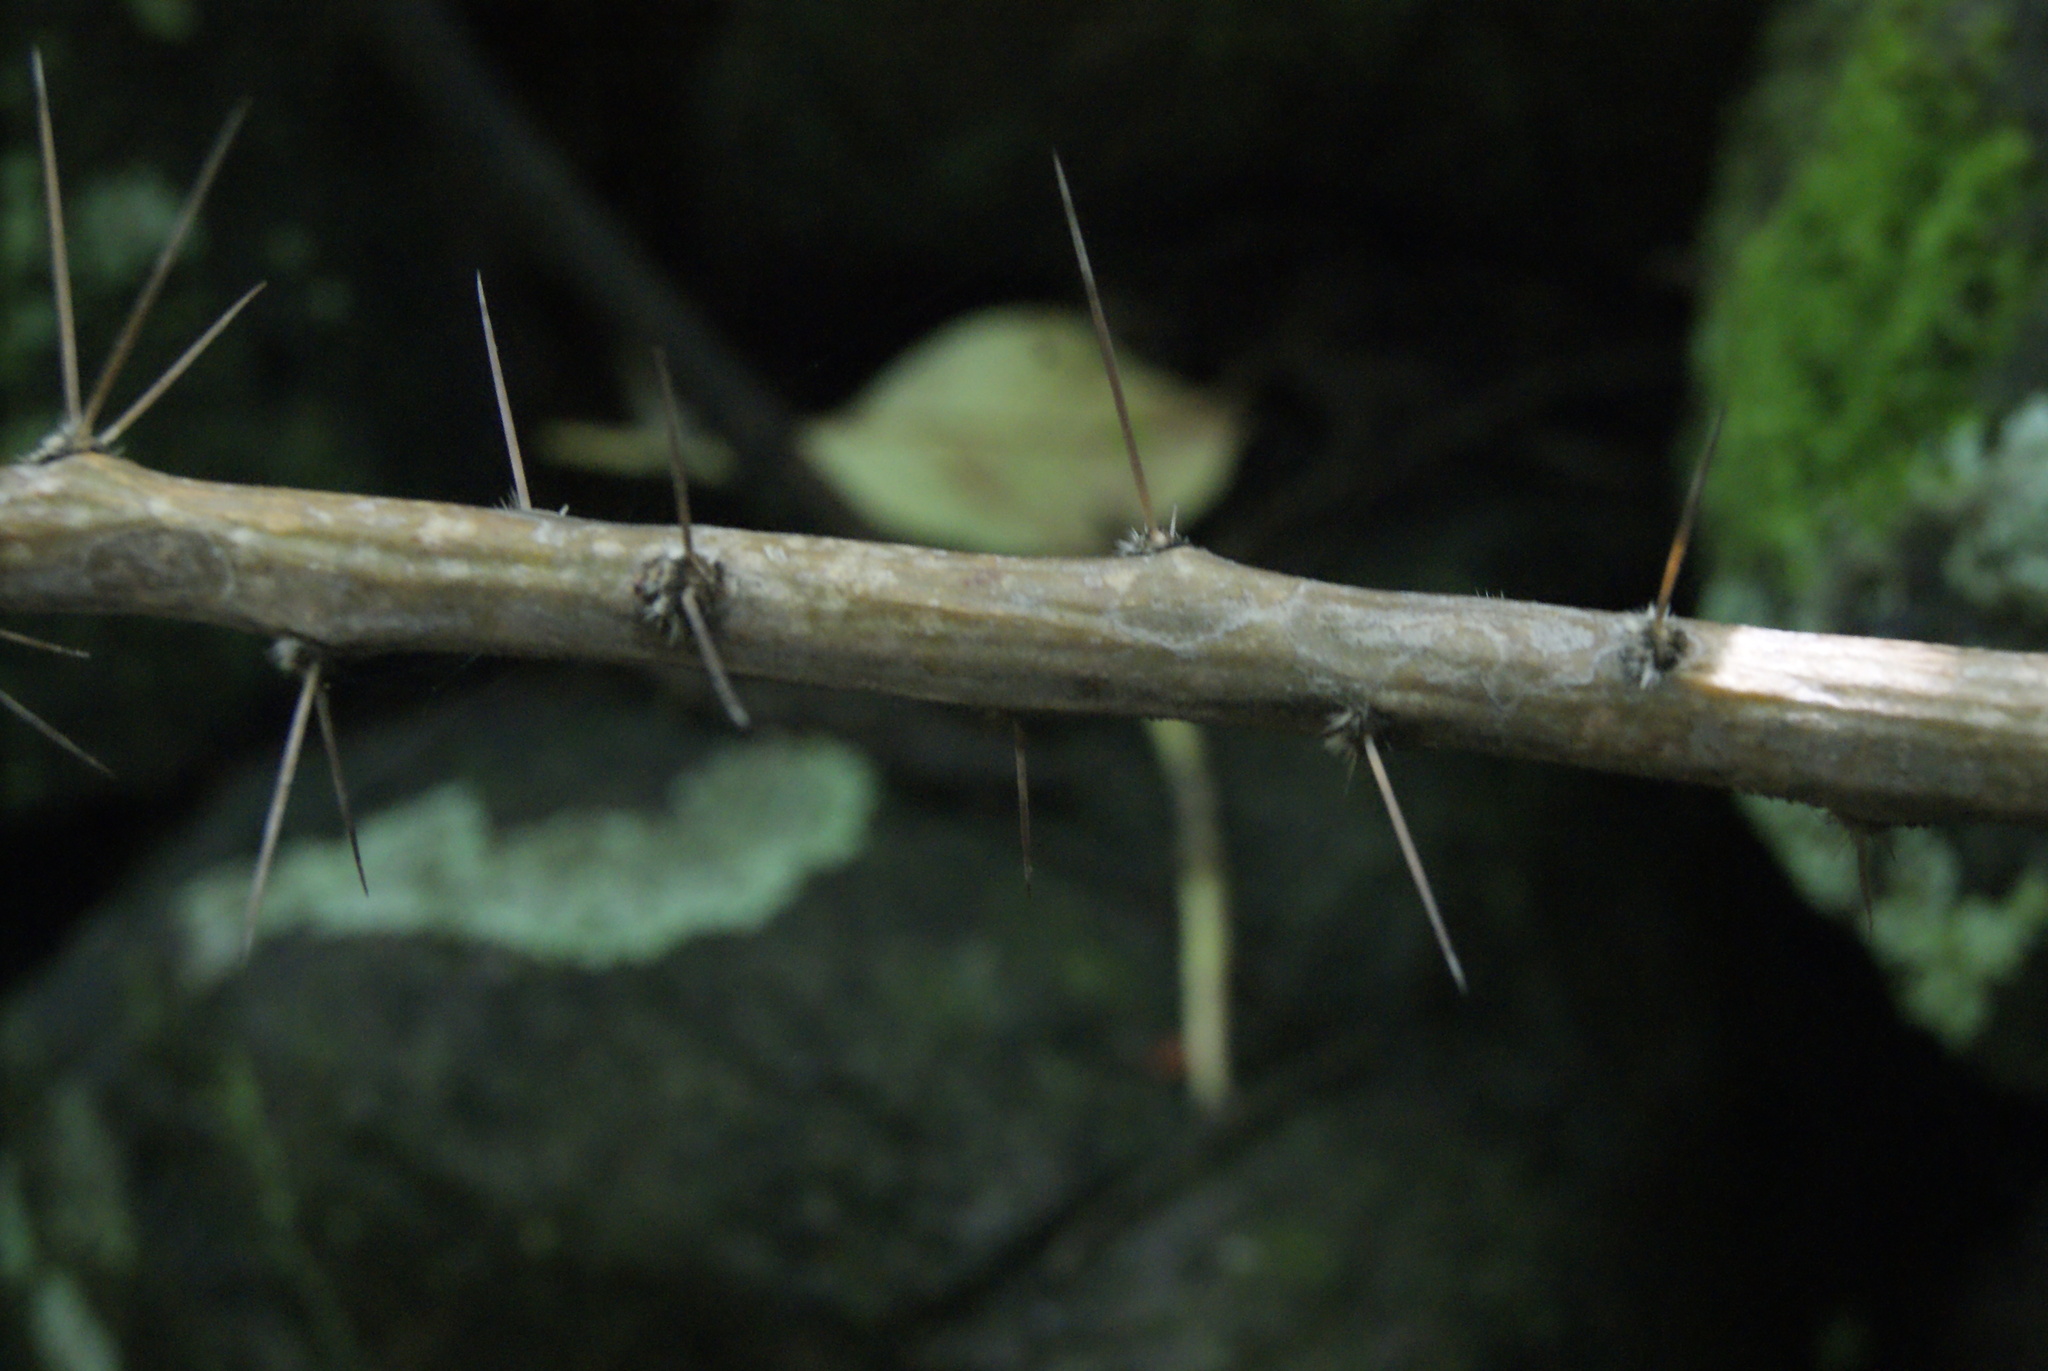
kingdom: Plantae
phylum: Tracheophyta
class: Magnoliopsida
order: Caryophyllales
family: Cactaceae
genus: Pereskiopsis
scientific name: Pereskiopsis diguetii
